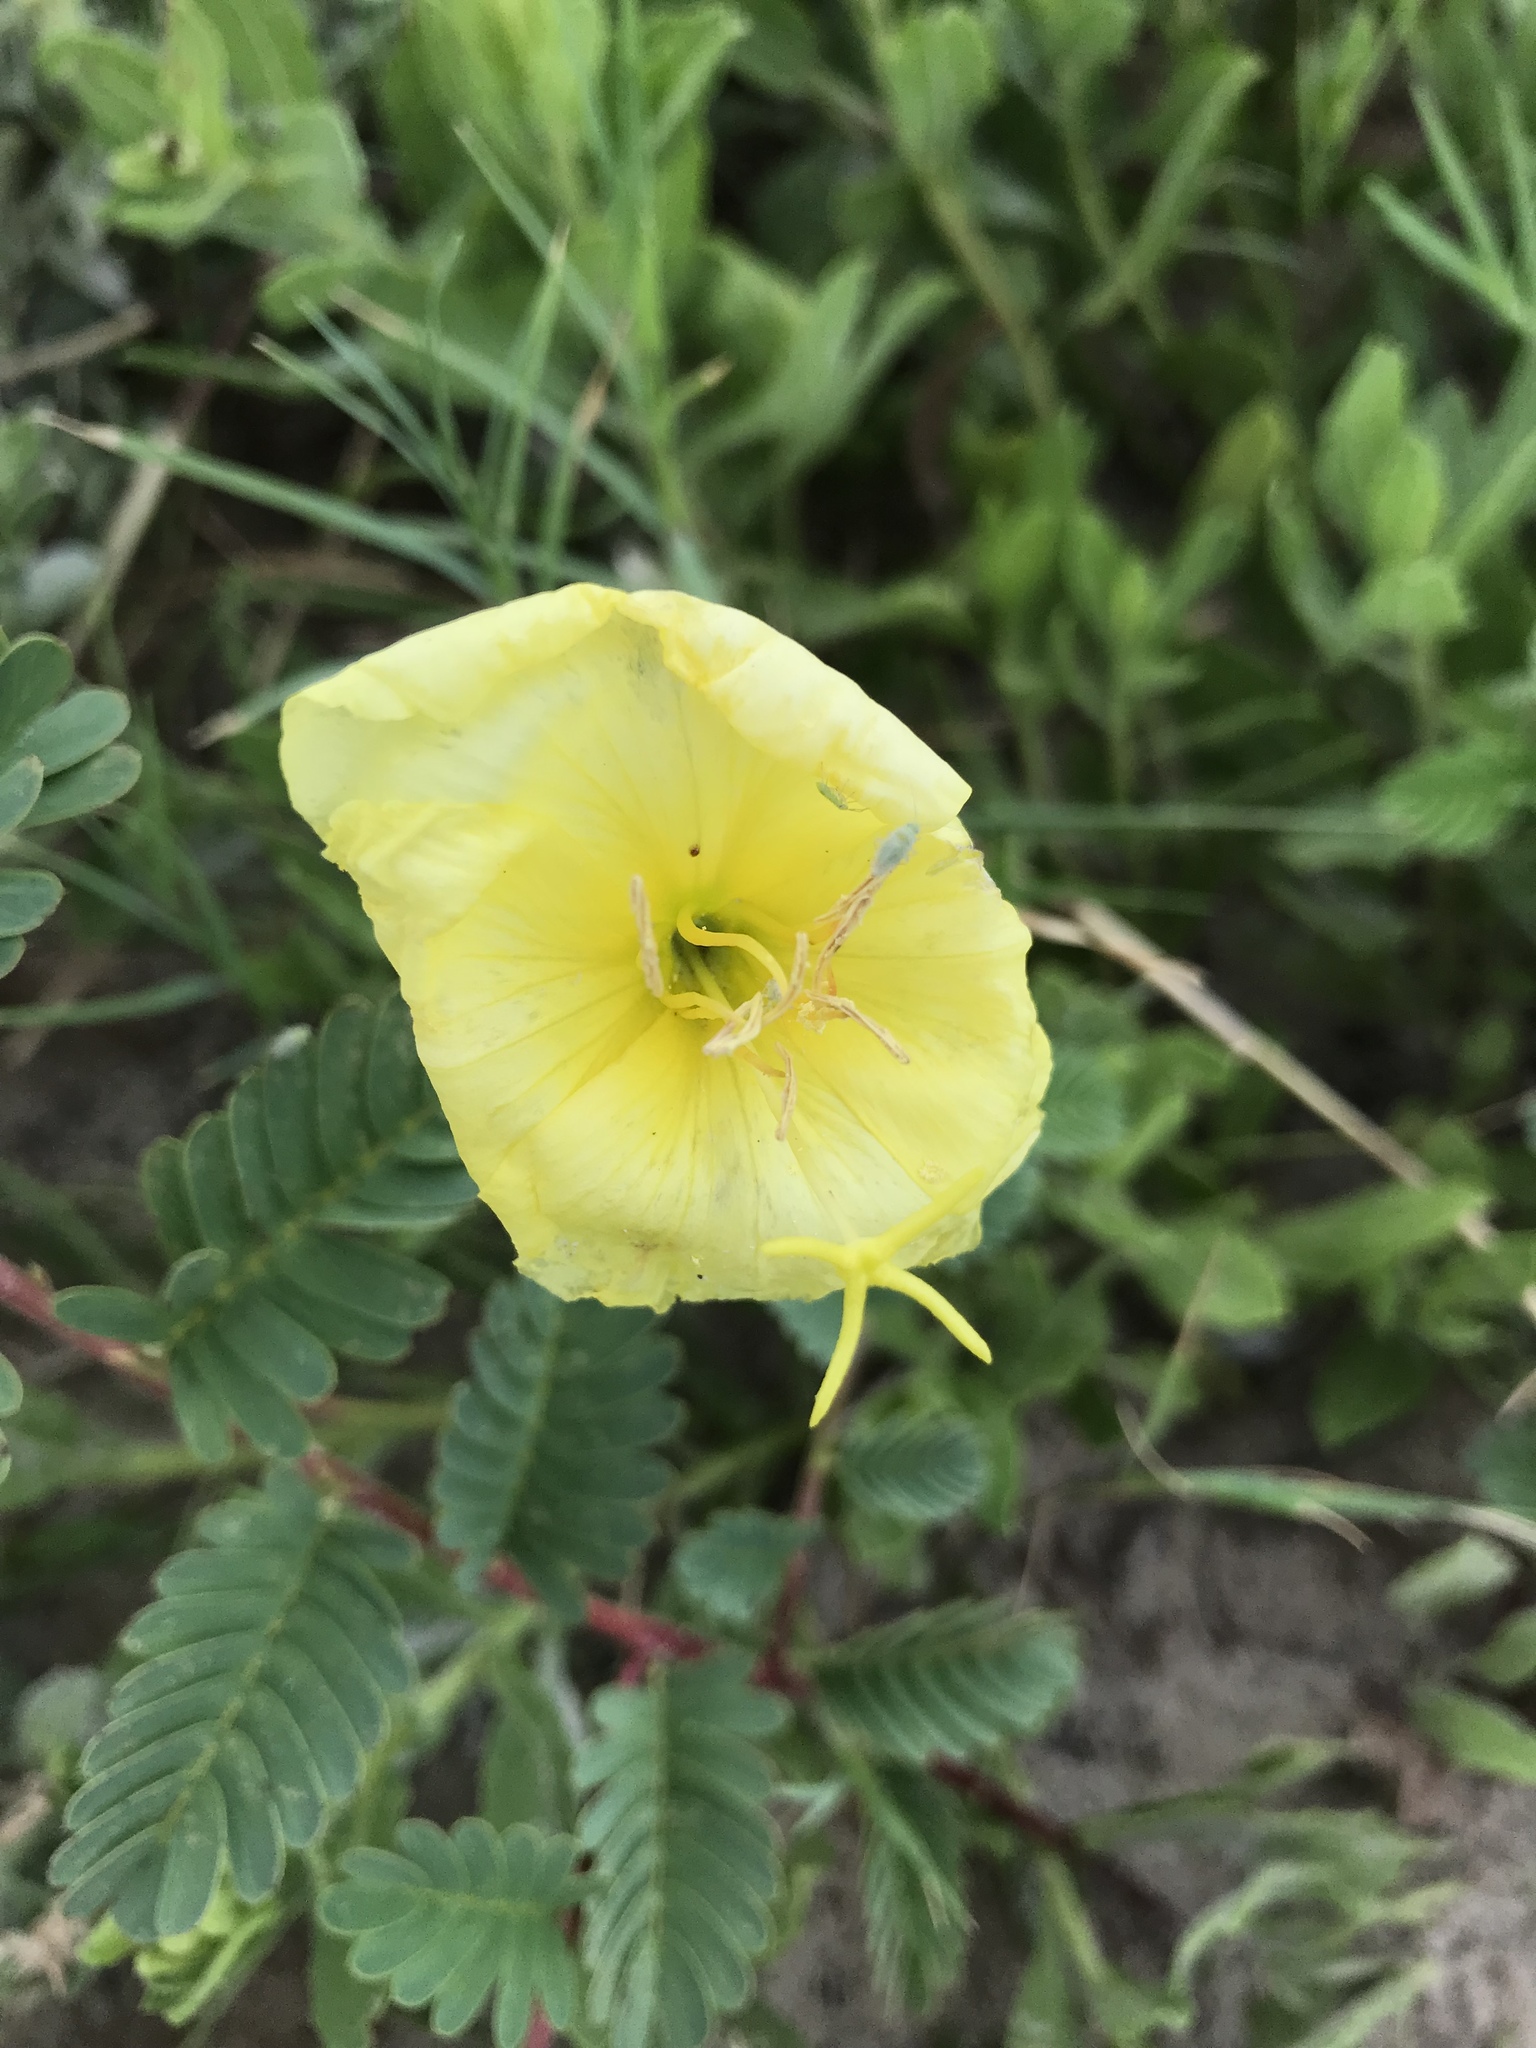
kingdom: Plantae
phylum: Tracheophyta
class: Magnoliopsida
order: Myrtales
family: Onagraceae
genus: Oenothera
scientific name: Oenothera drummondii
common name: Beach evening-primrose
